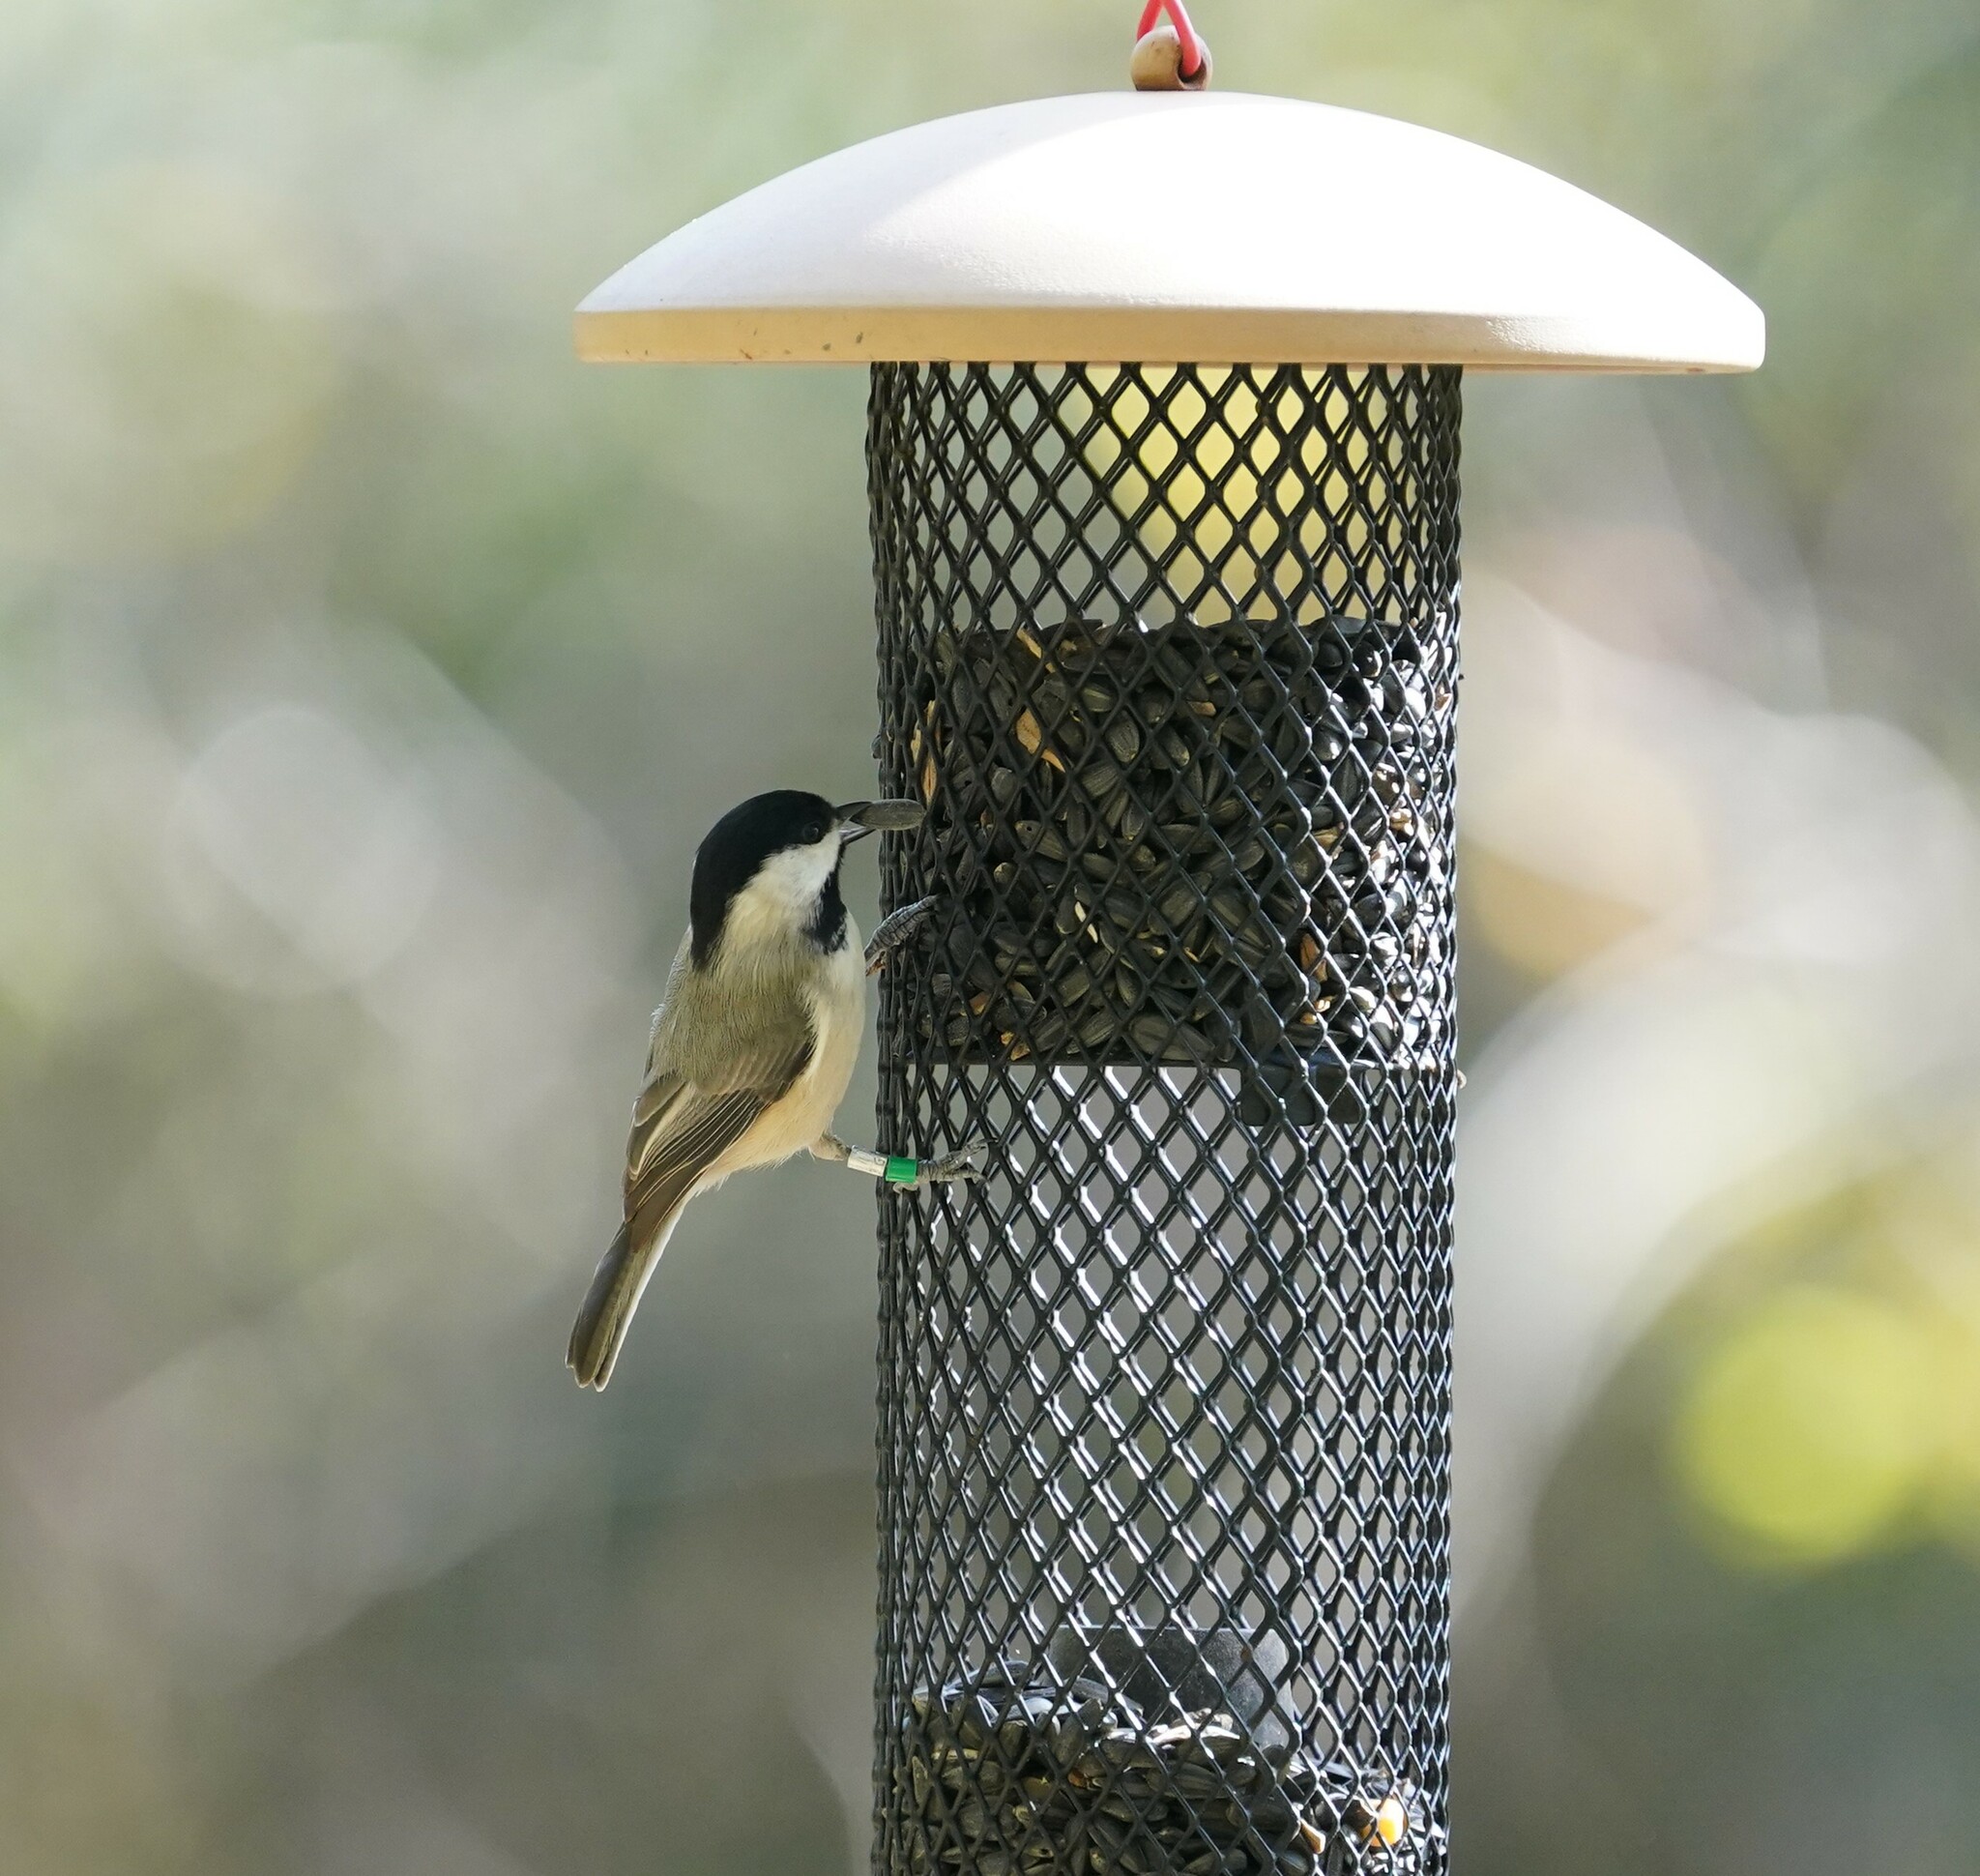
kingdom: Animalia
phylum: Chordata
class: Aves
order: Passeriformes
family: Paridae
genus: Poecile
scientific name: Poecile carolinensis
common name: Carolina chickadee
